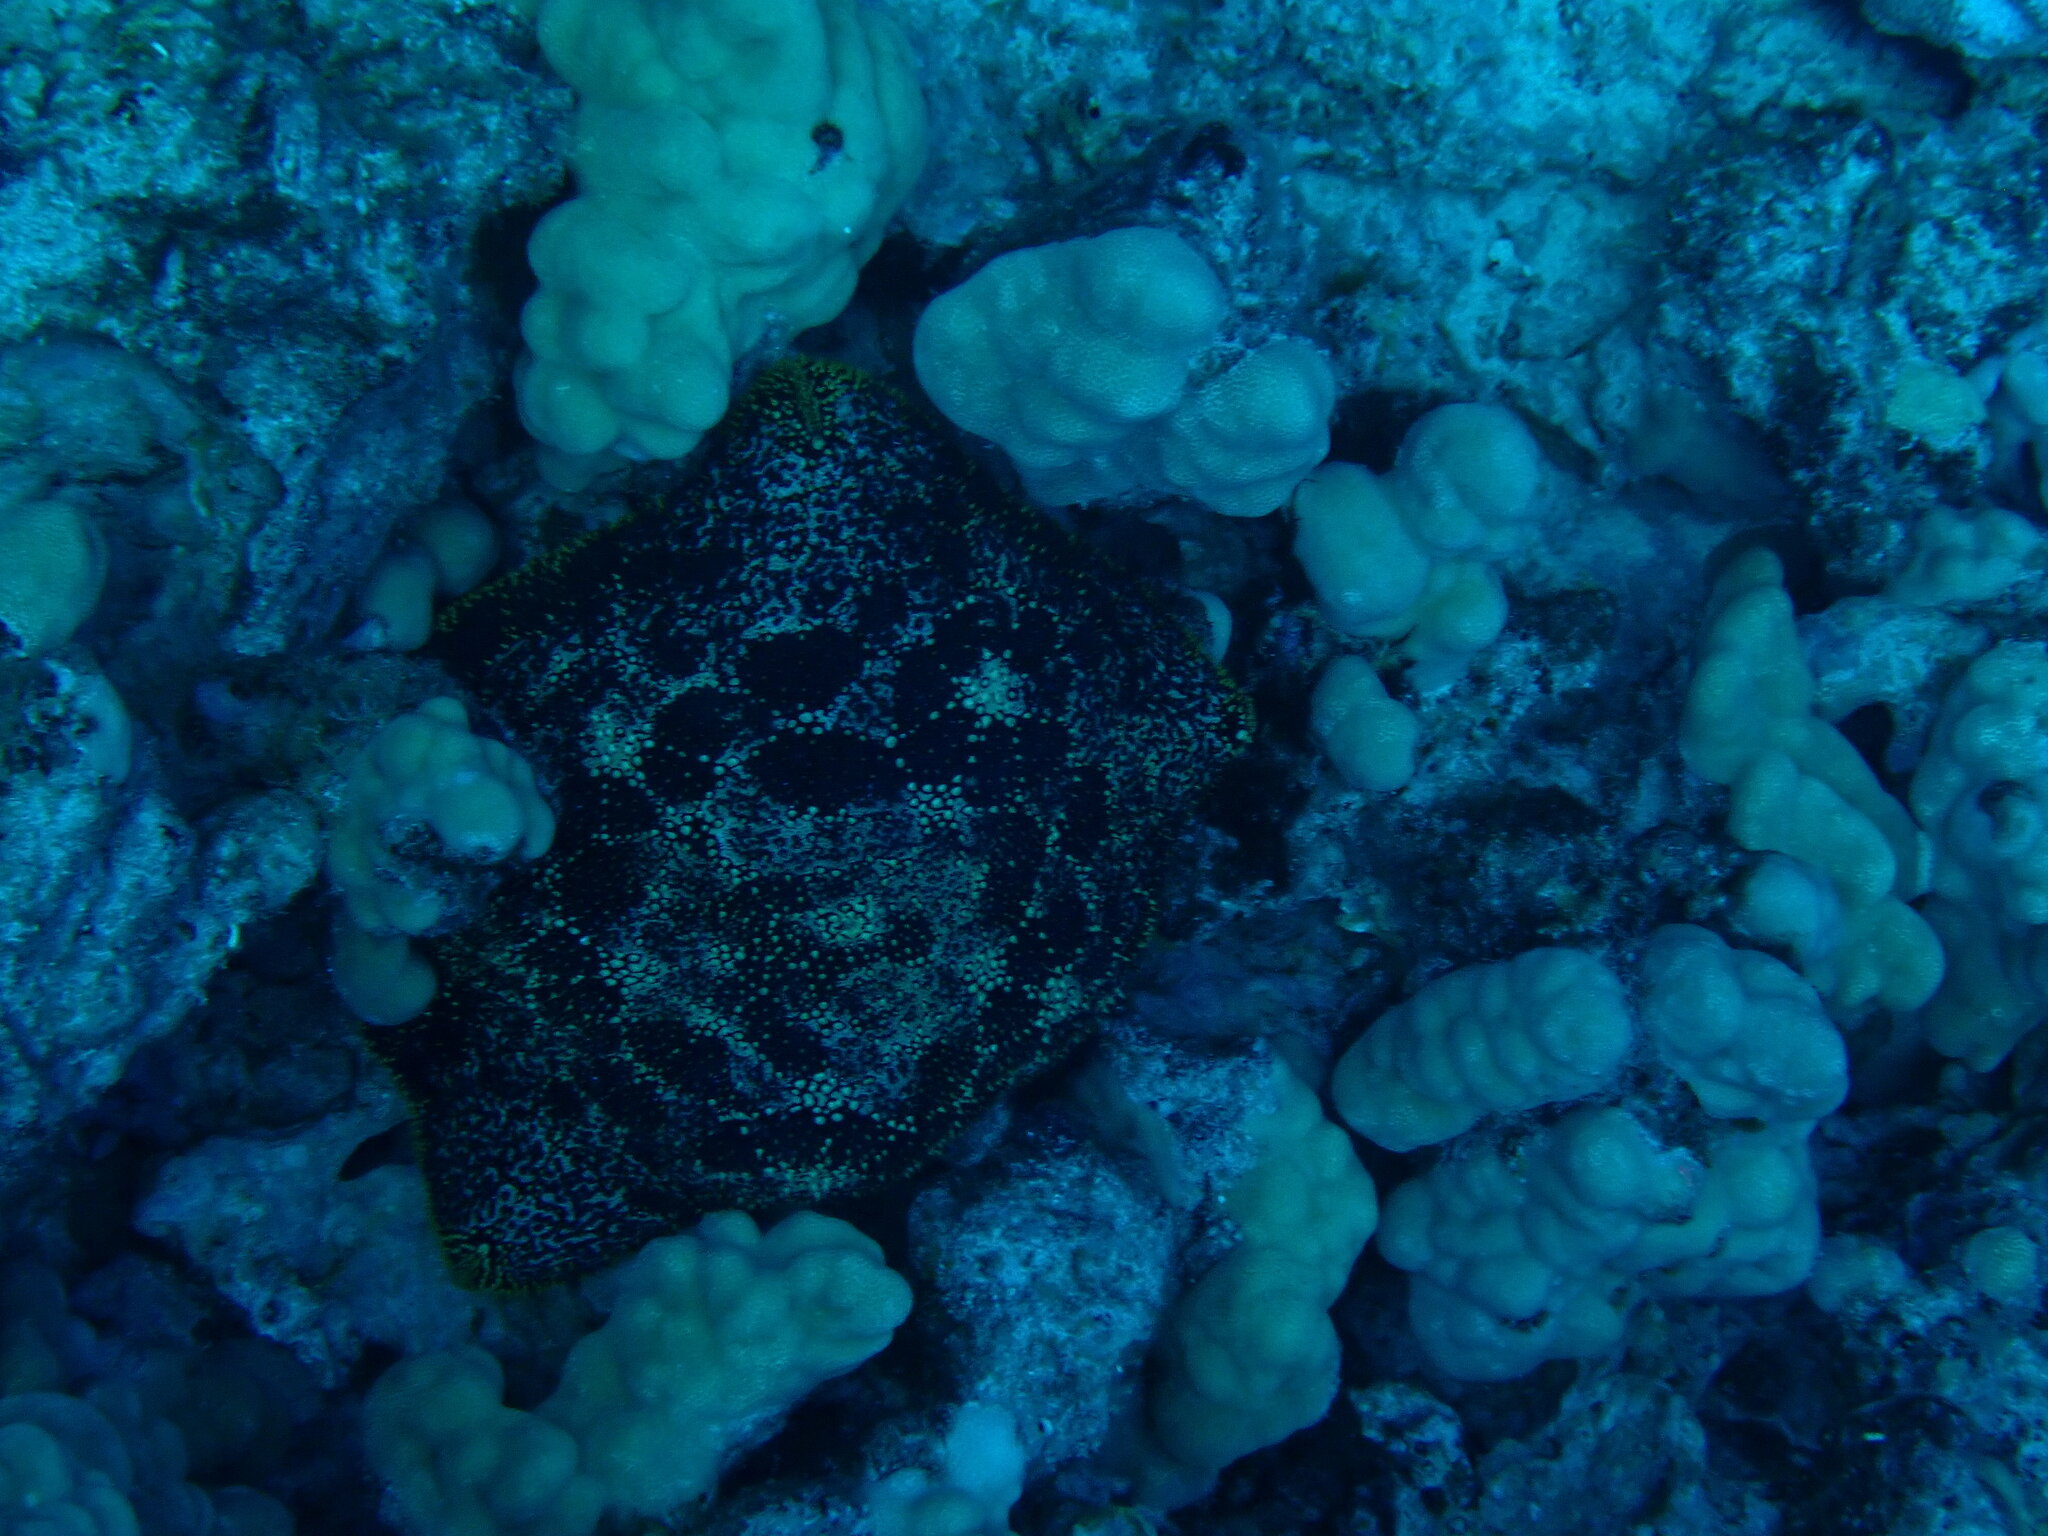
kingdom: Animalia
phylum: Echinodermata
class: Asteroidea
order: Valvatida
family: Oreasteridae
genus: Culcita
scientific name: Culcita novaeguineae
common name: Cushion star
